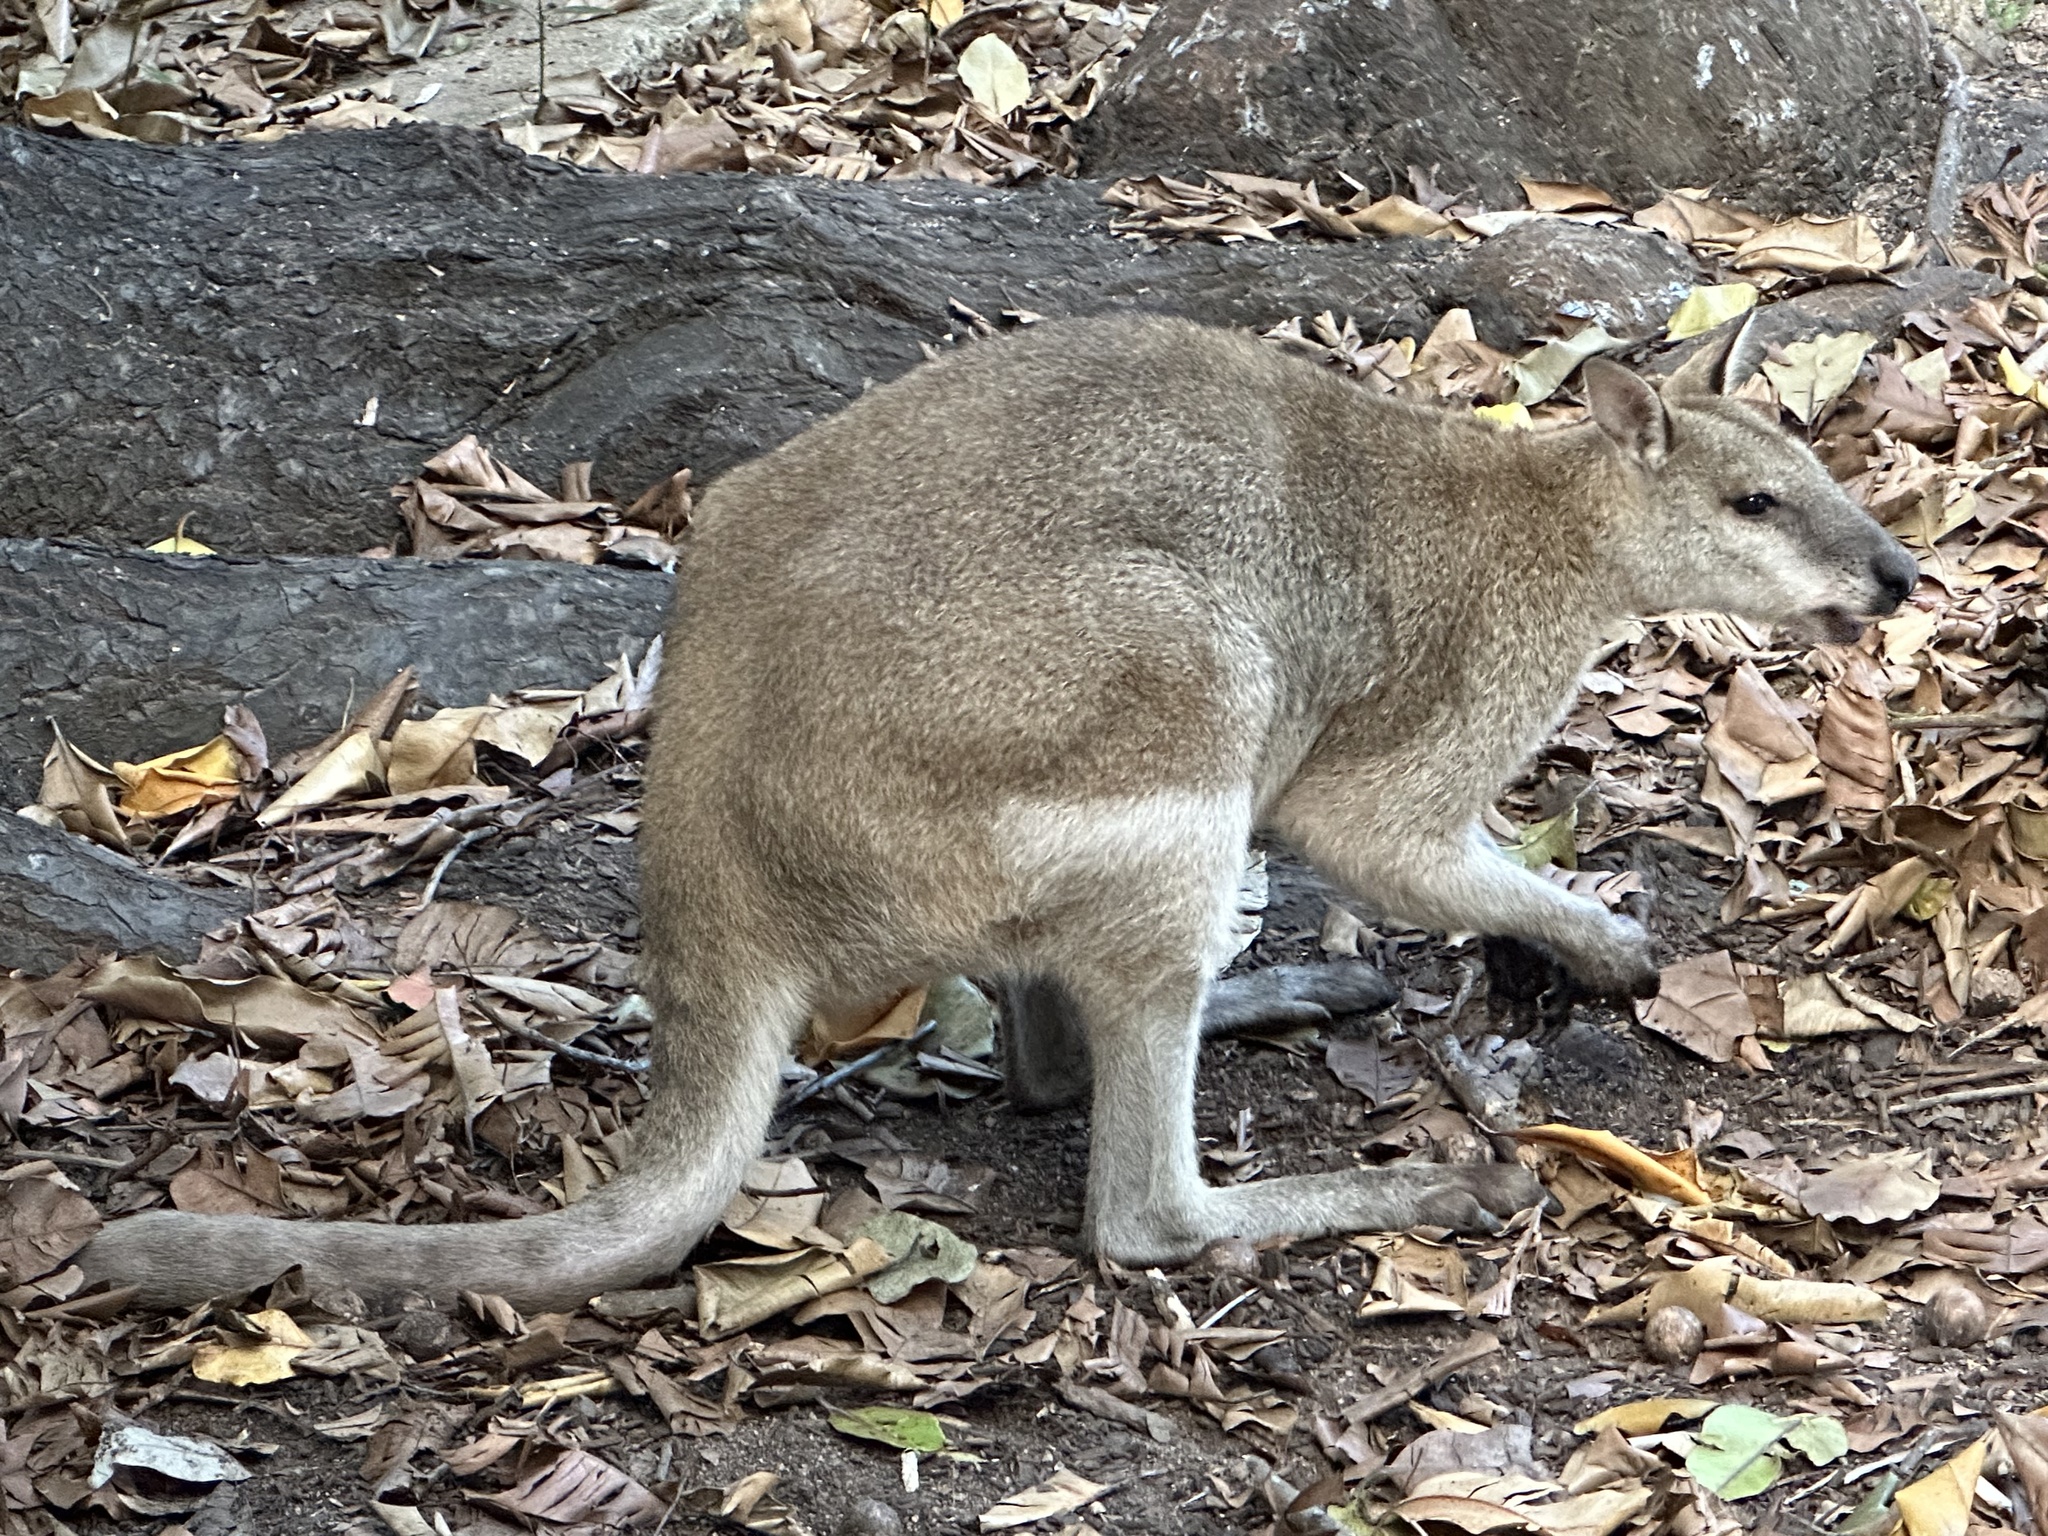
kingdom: Animalia
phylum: Chordata
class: Mammalia
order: Diprotodontia
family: Macropodidae
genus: Macropus
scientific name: Macropus agilis
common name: Agile wallaby
